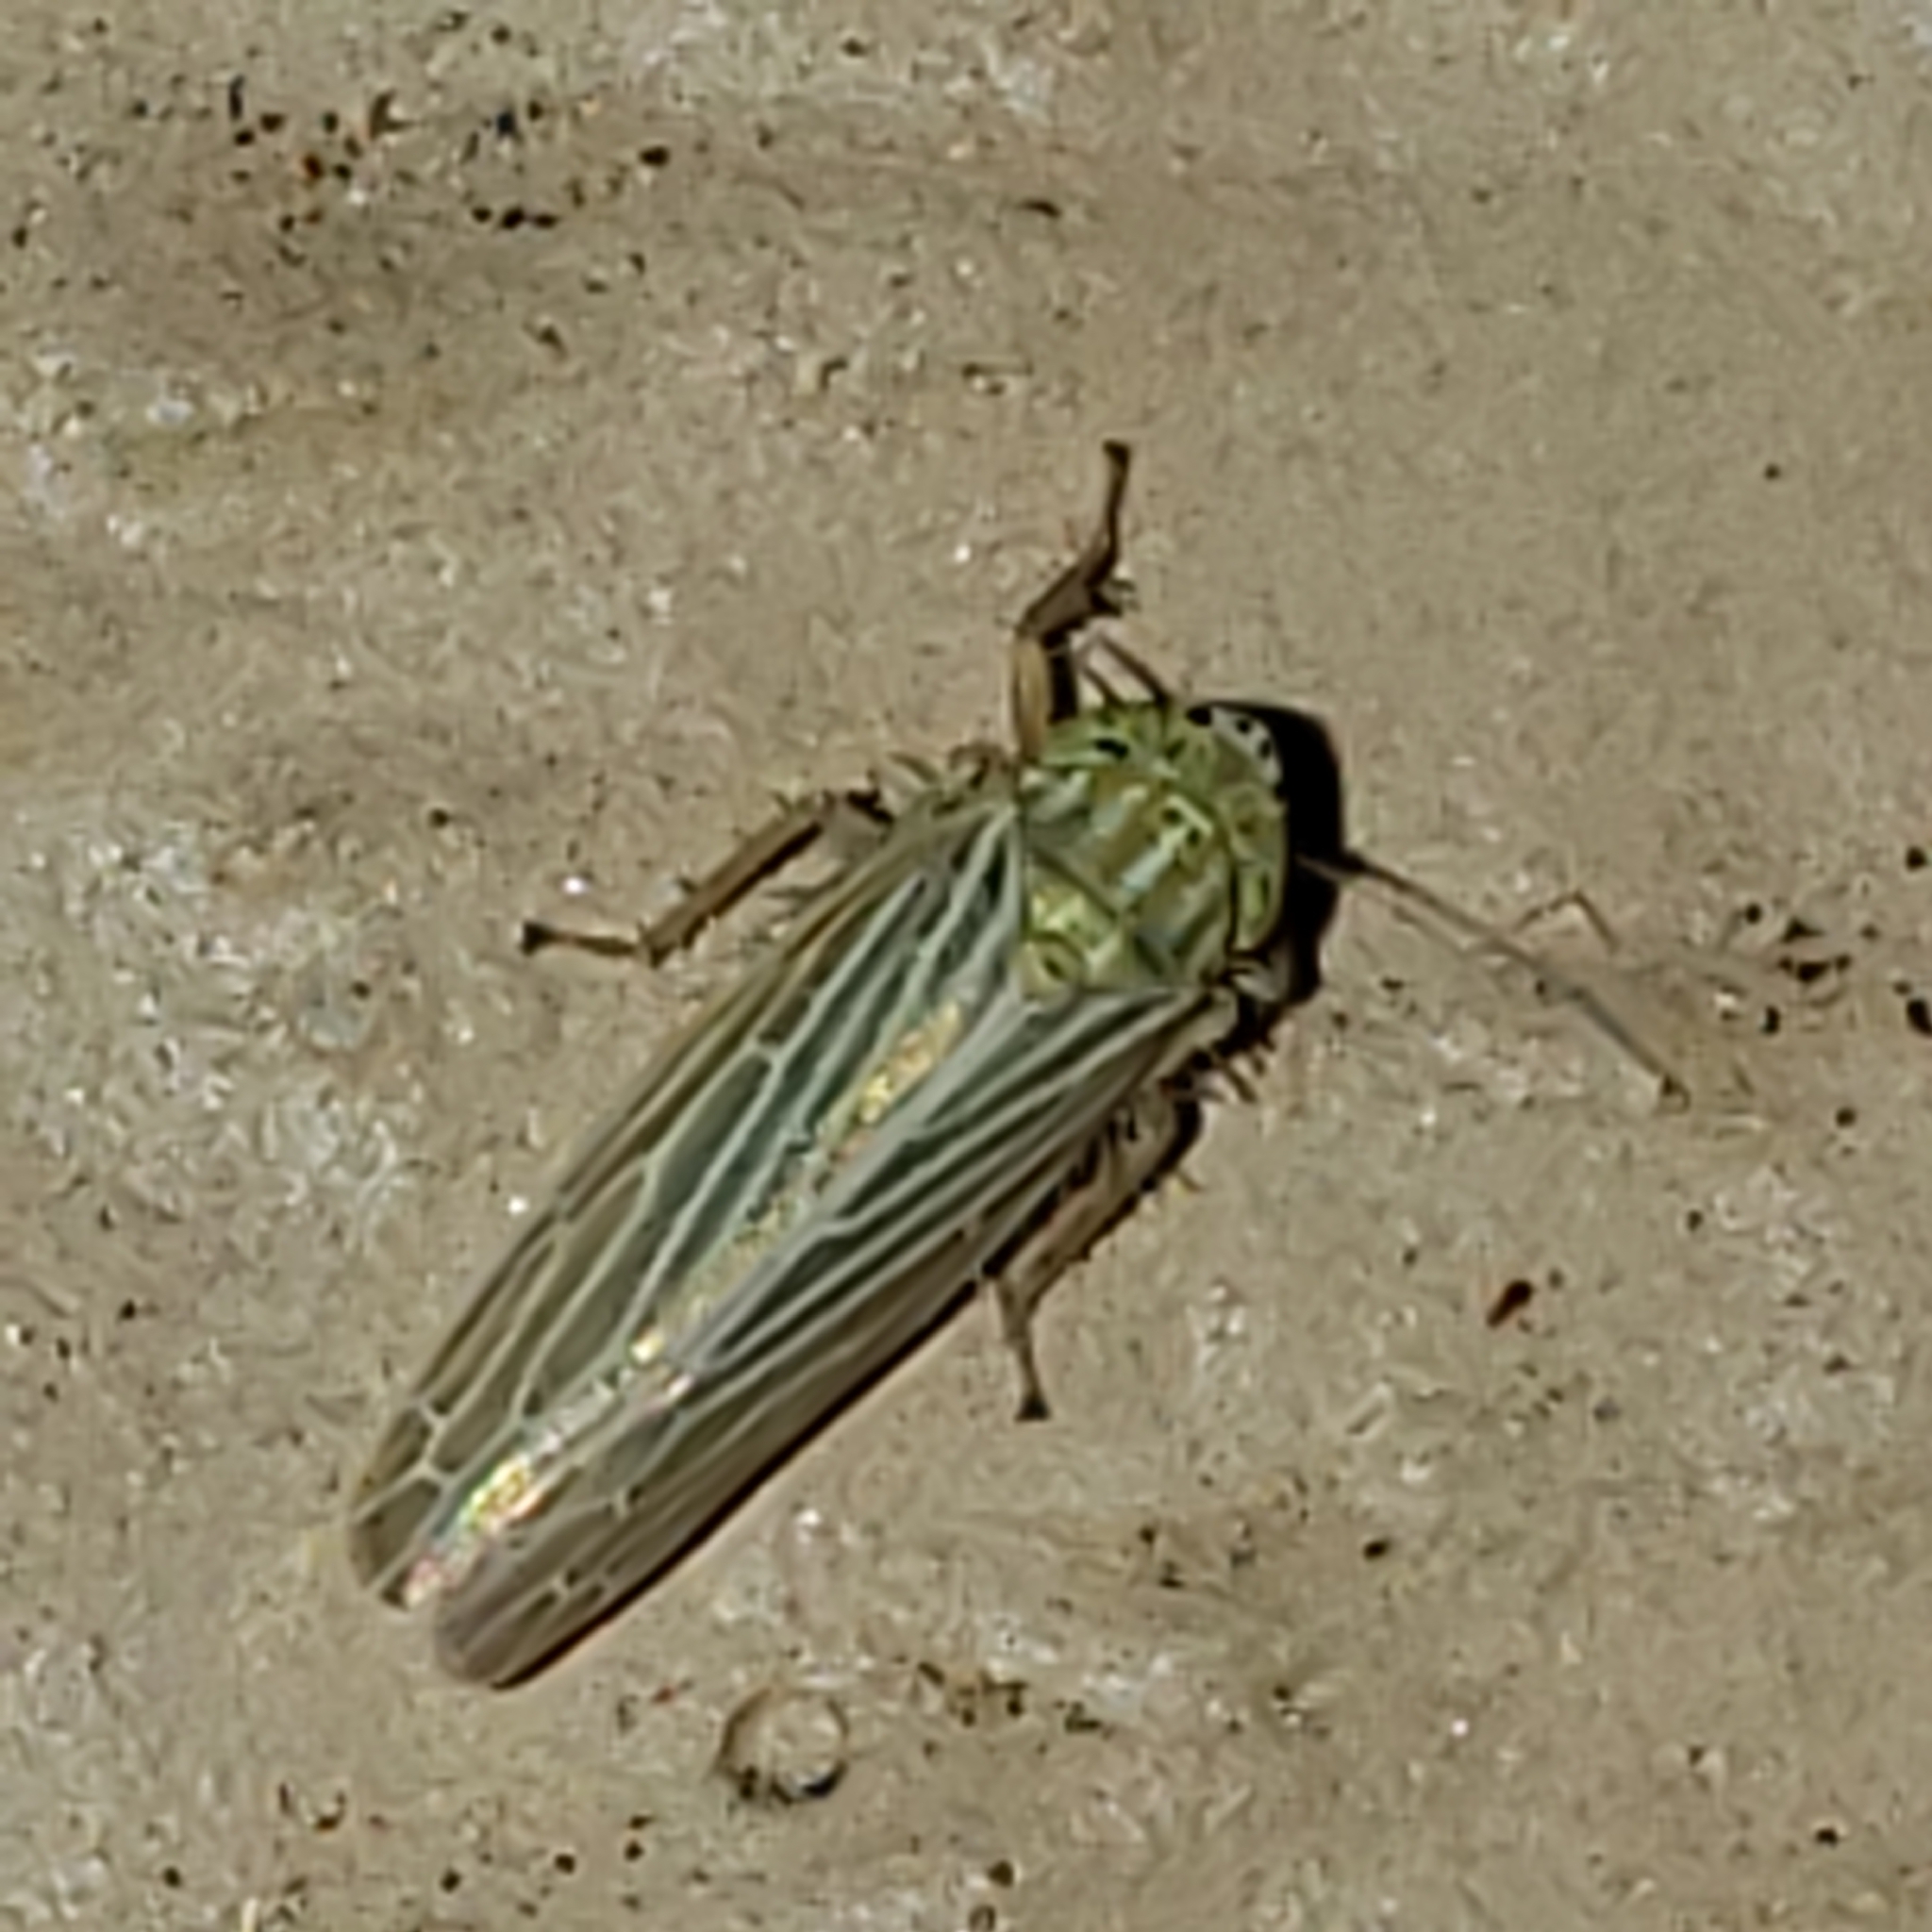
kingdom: Animalia
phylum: Arthropoda
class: Insecta
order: Hemiptera
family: Cicadellidae
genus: Graminella
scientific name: Graminella fitchii
